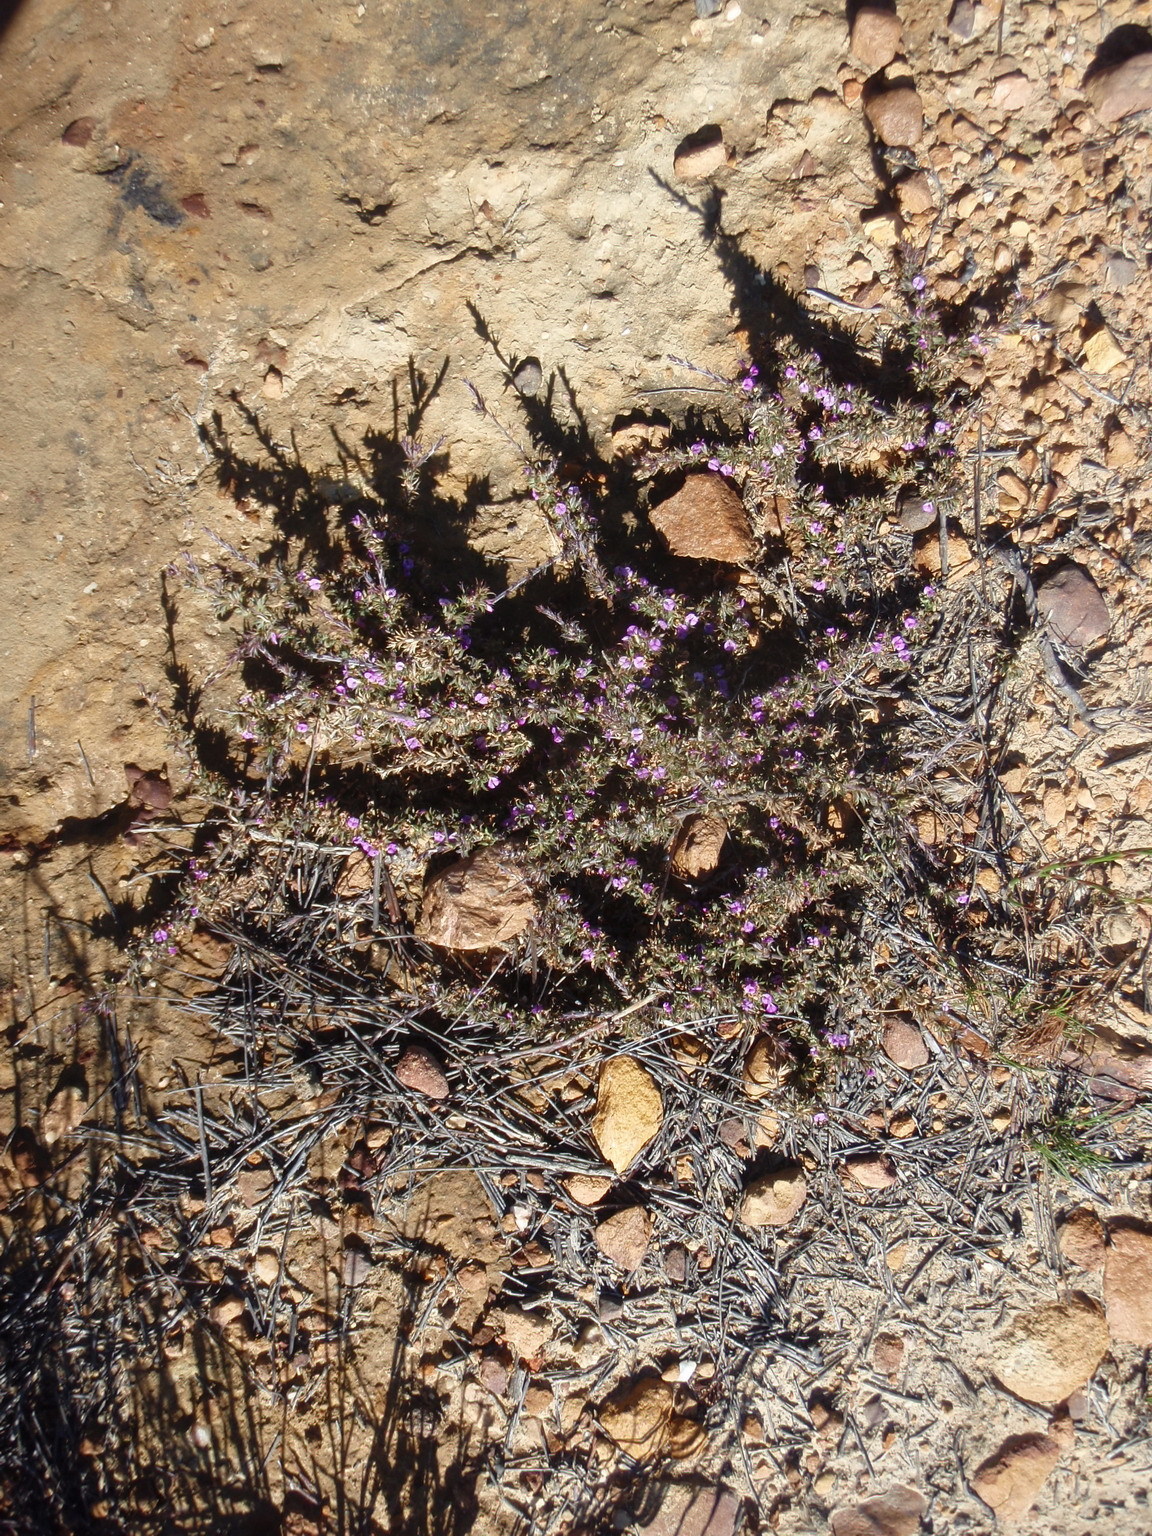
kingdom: Plantae
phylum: Tracheophyta
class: Magnoliopsida
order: Fabales
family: Polygalaceae
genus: Muraltia
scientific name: Muraltia squarrosa
